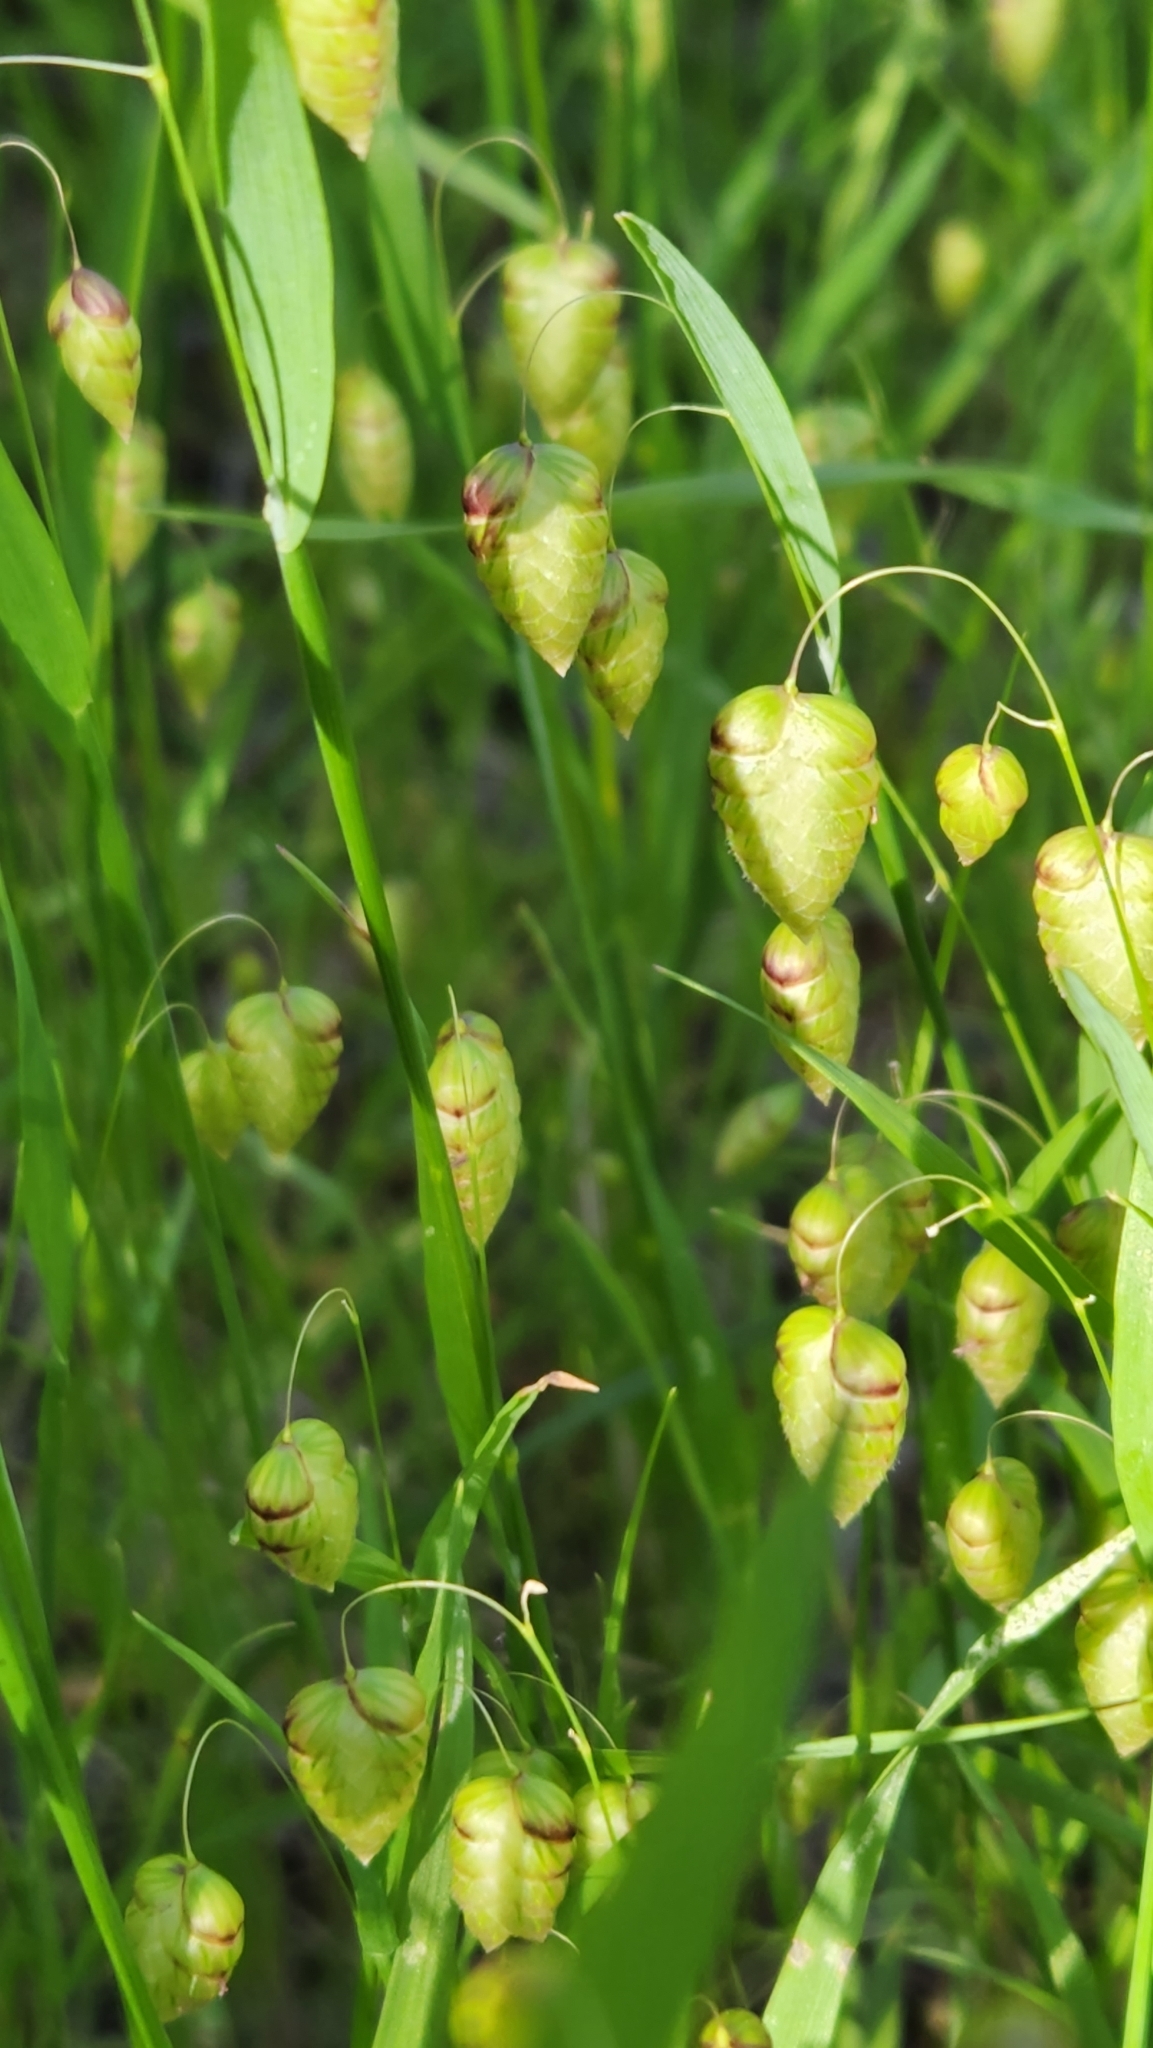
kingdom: Plantae
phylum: Tracheophyta
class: Liliopsida
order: Poales
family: Poaceae
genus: Briza
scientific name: Briza maxima
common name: Big quakinggrass
